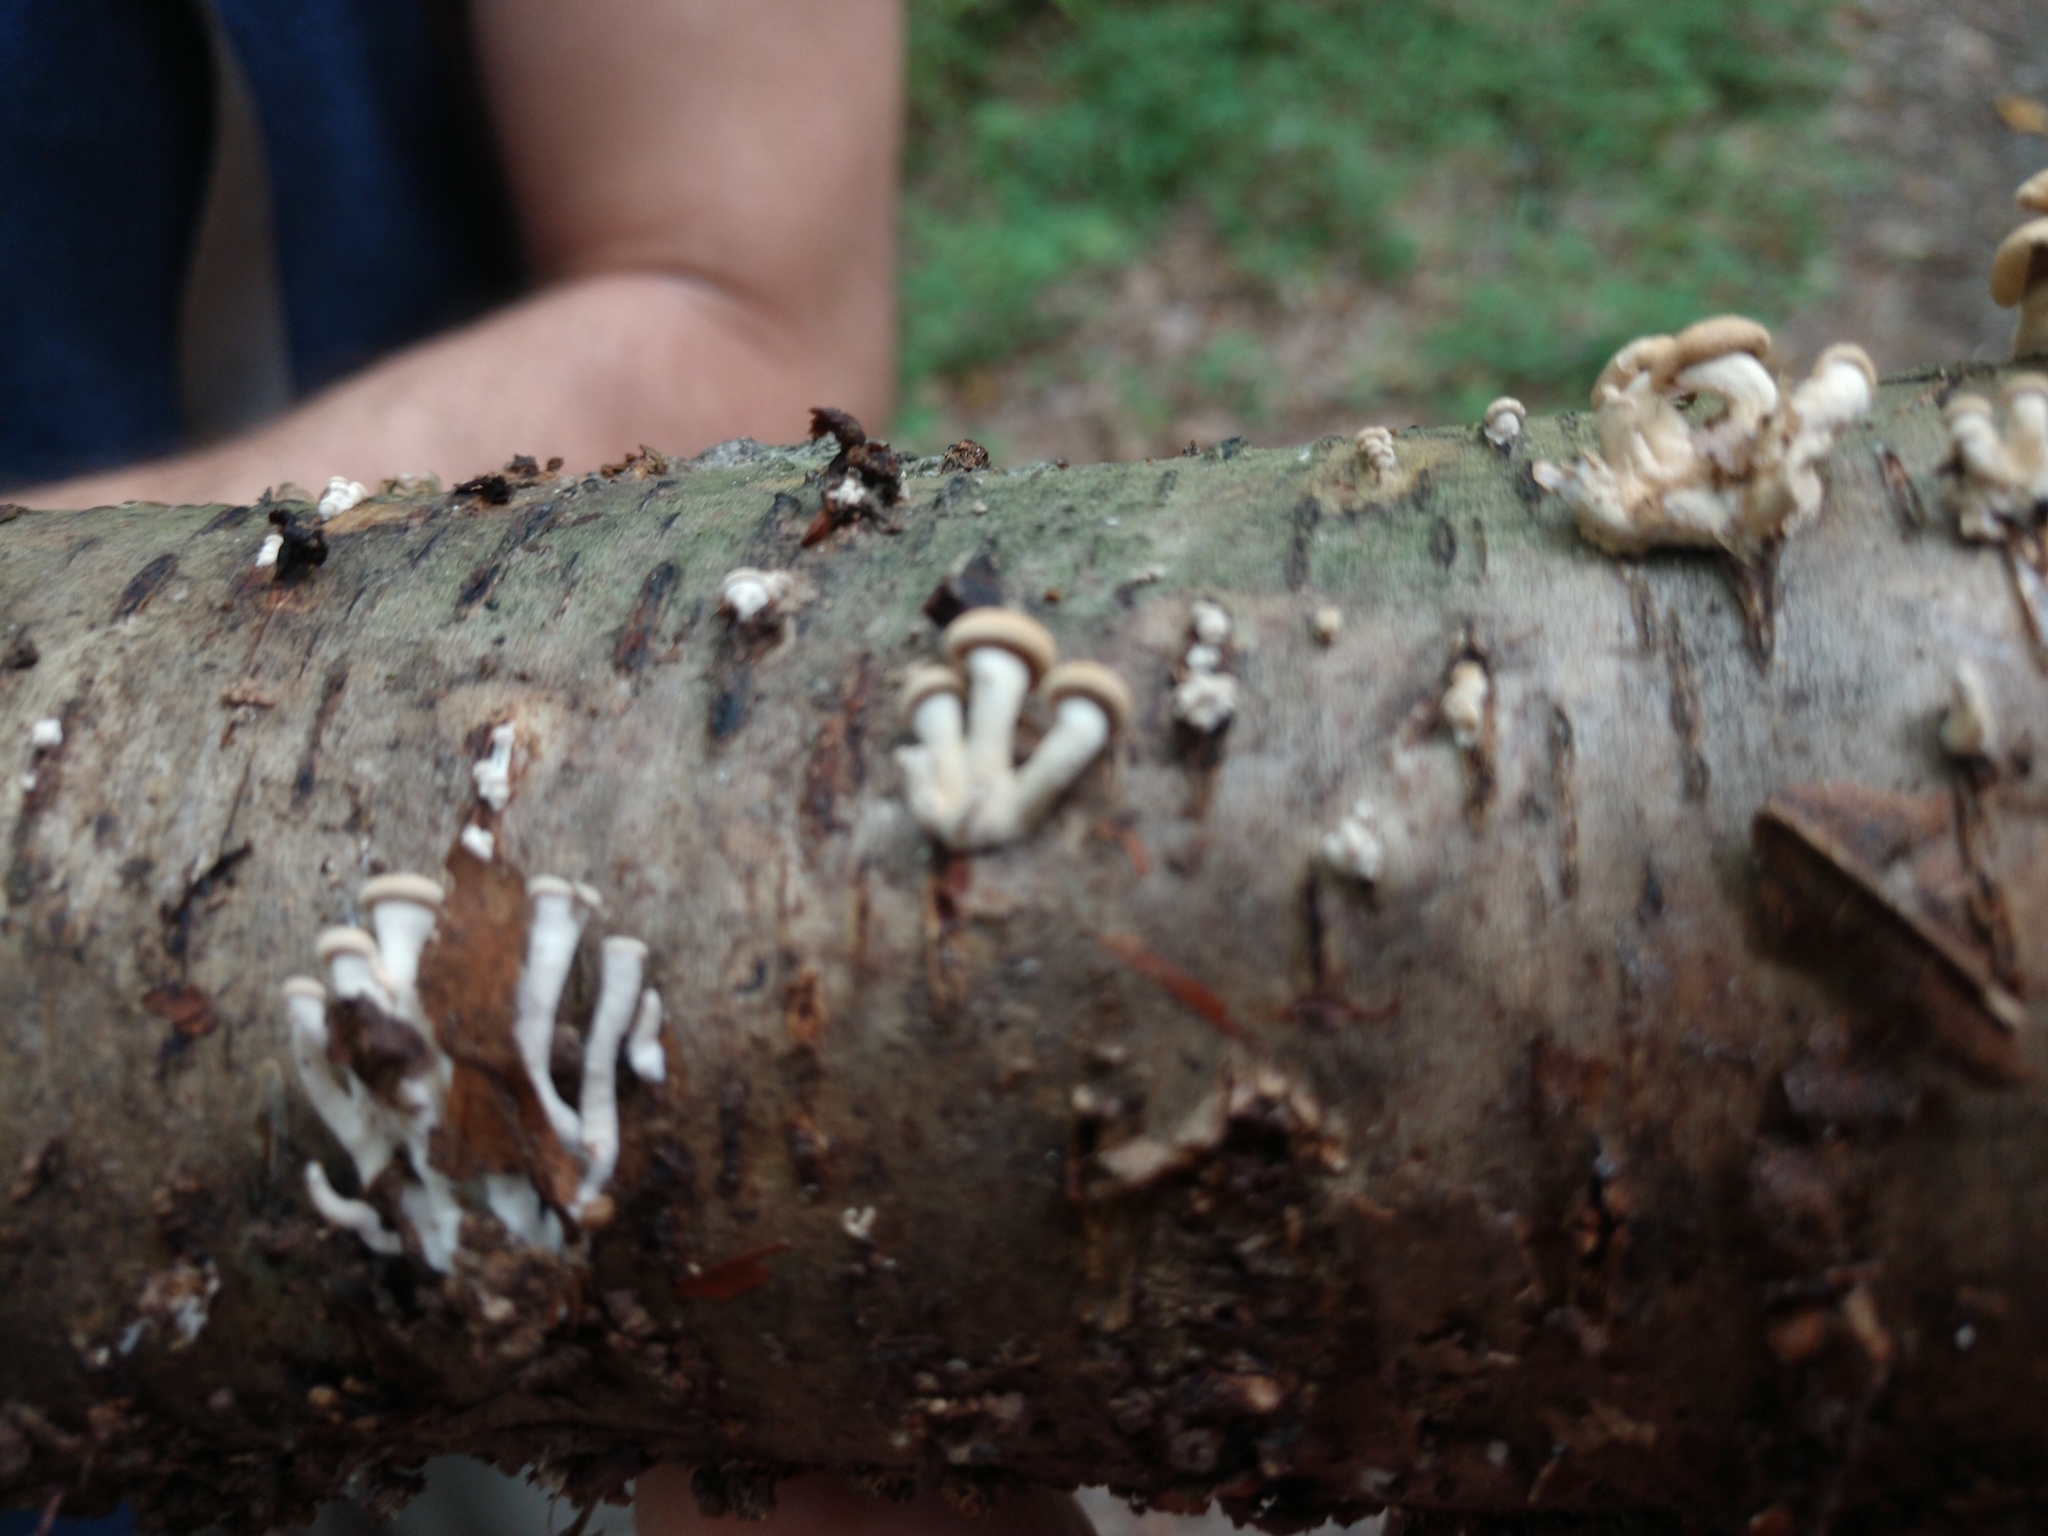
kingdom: Fungi
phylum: Basidiomycota
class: Agaricomycetes
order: Agaricales
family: Mycenaceae
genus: Panellus
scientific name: Panellus stipticus
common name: Bitter oysterling
